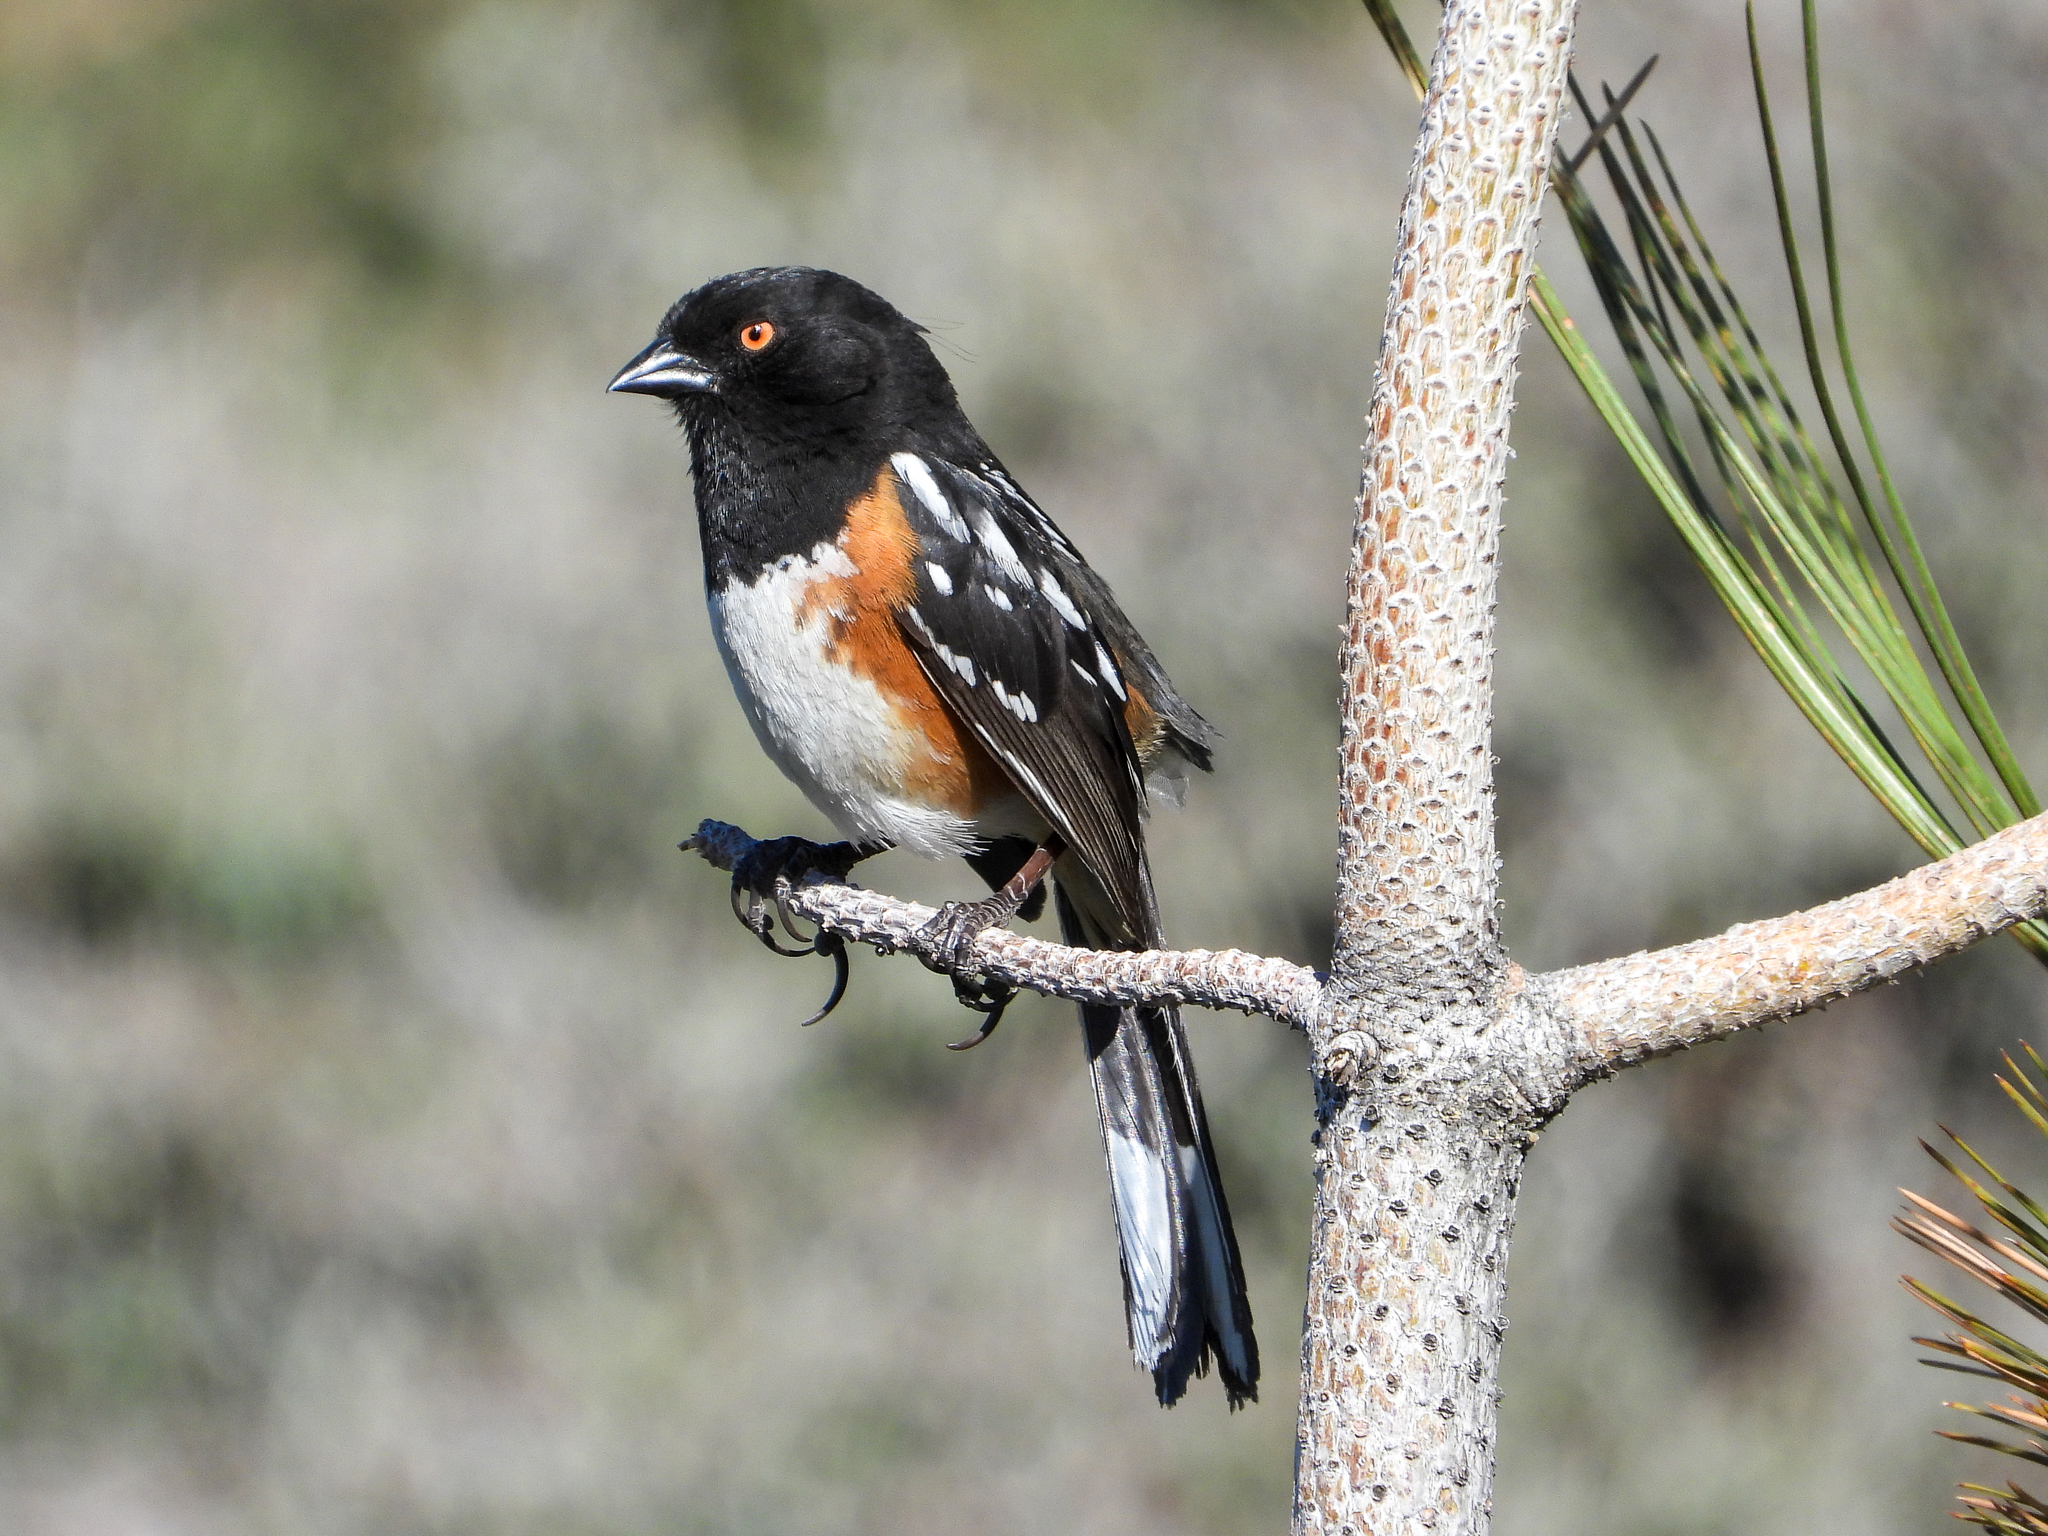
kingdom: Animalia
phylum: Chordata
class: Aves
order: Passeriformes
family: Passerellidae
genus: Pipilo
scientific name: Pipilo maculatus
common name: Spotted towhee
